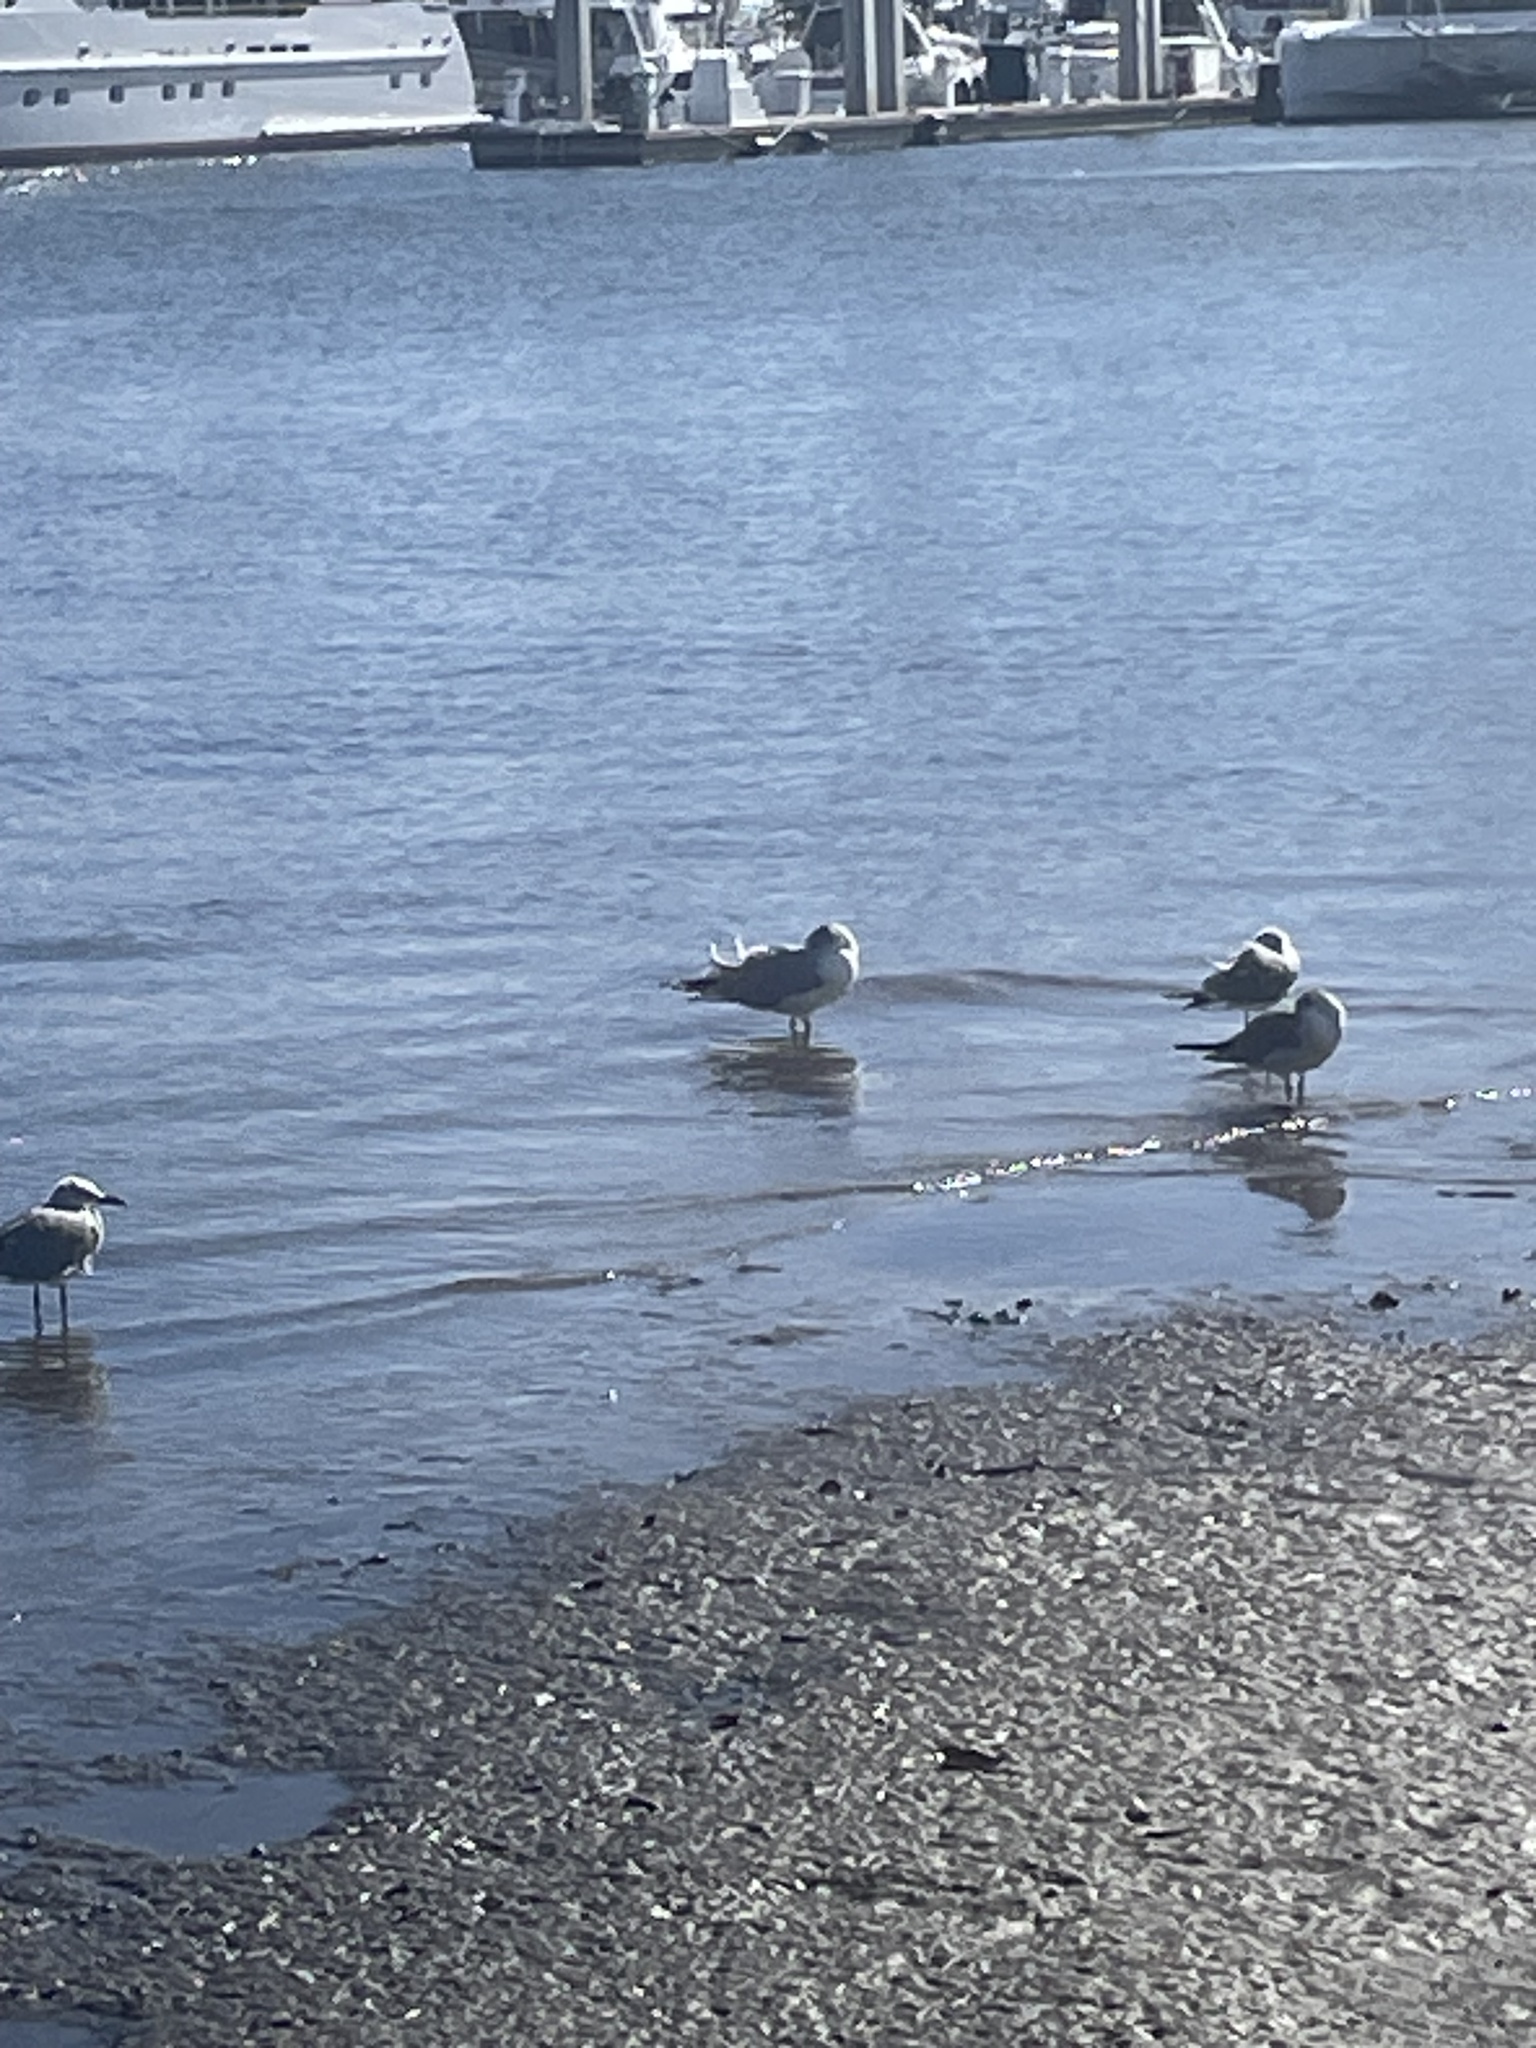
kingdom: Animalia
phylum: Chordata
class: Aves
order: Charadriiformes
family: Laridae
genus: Larus
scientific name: Larus delawarensis
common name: Ring-billed gull
